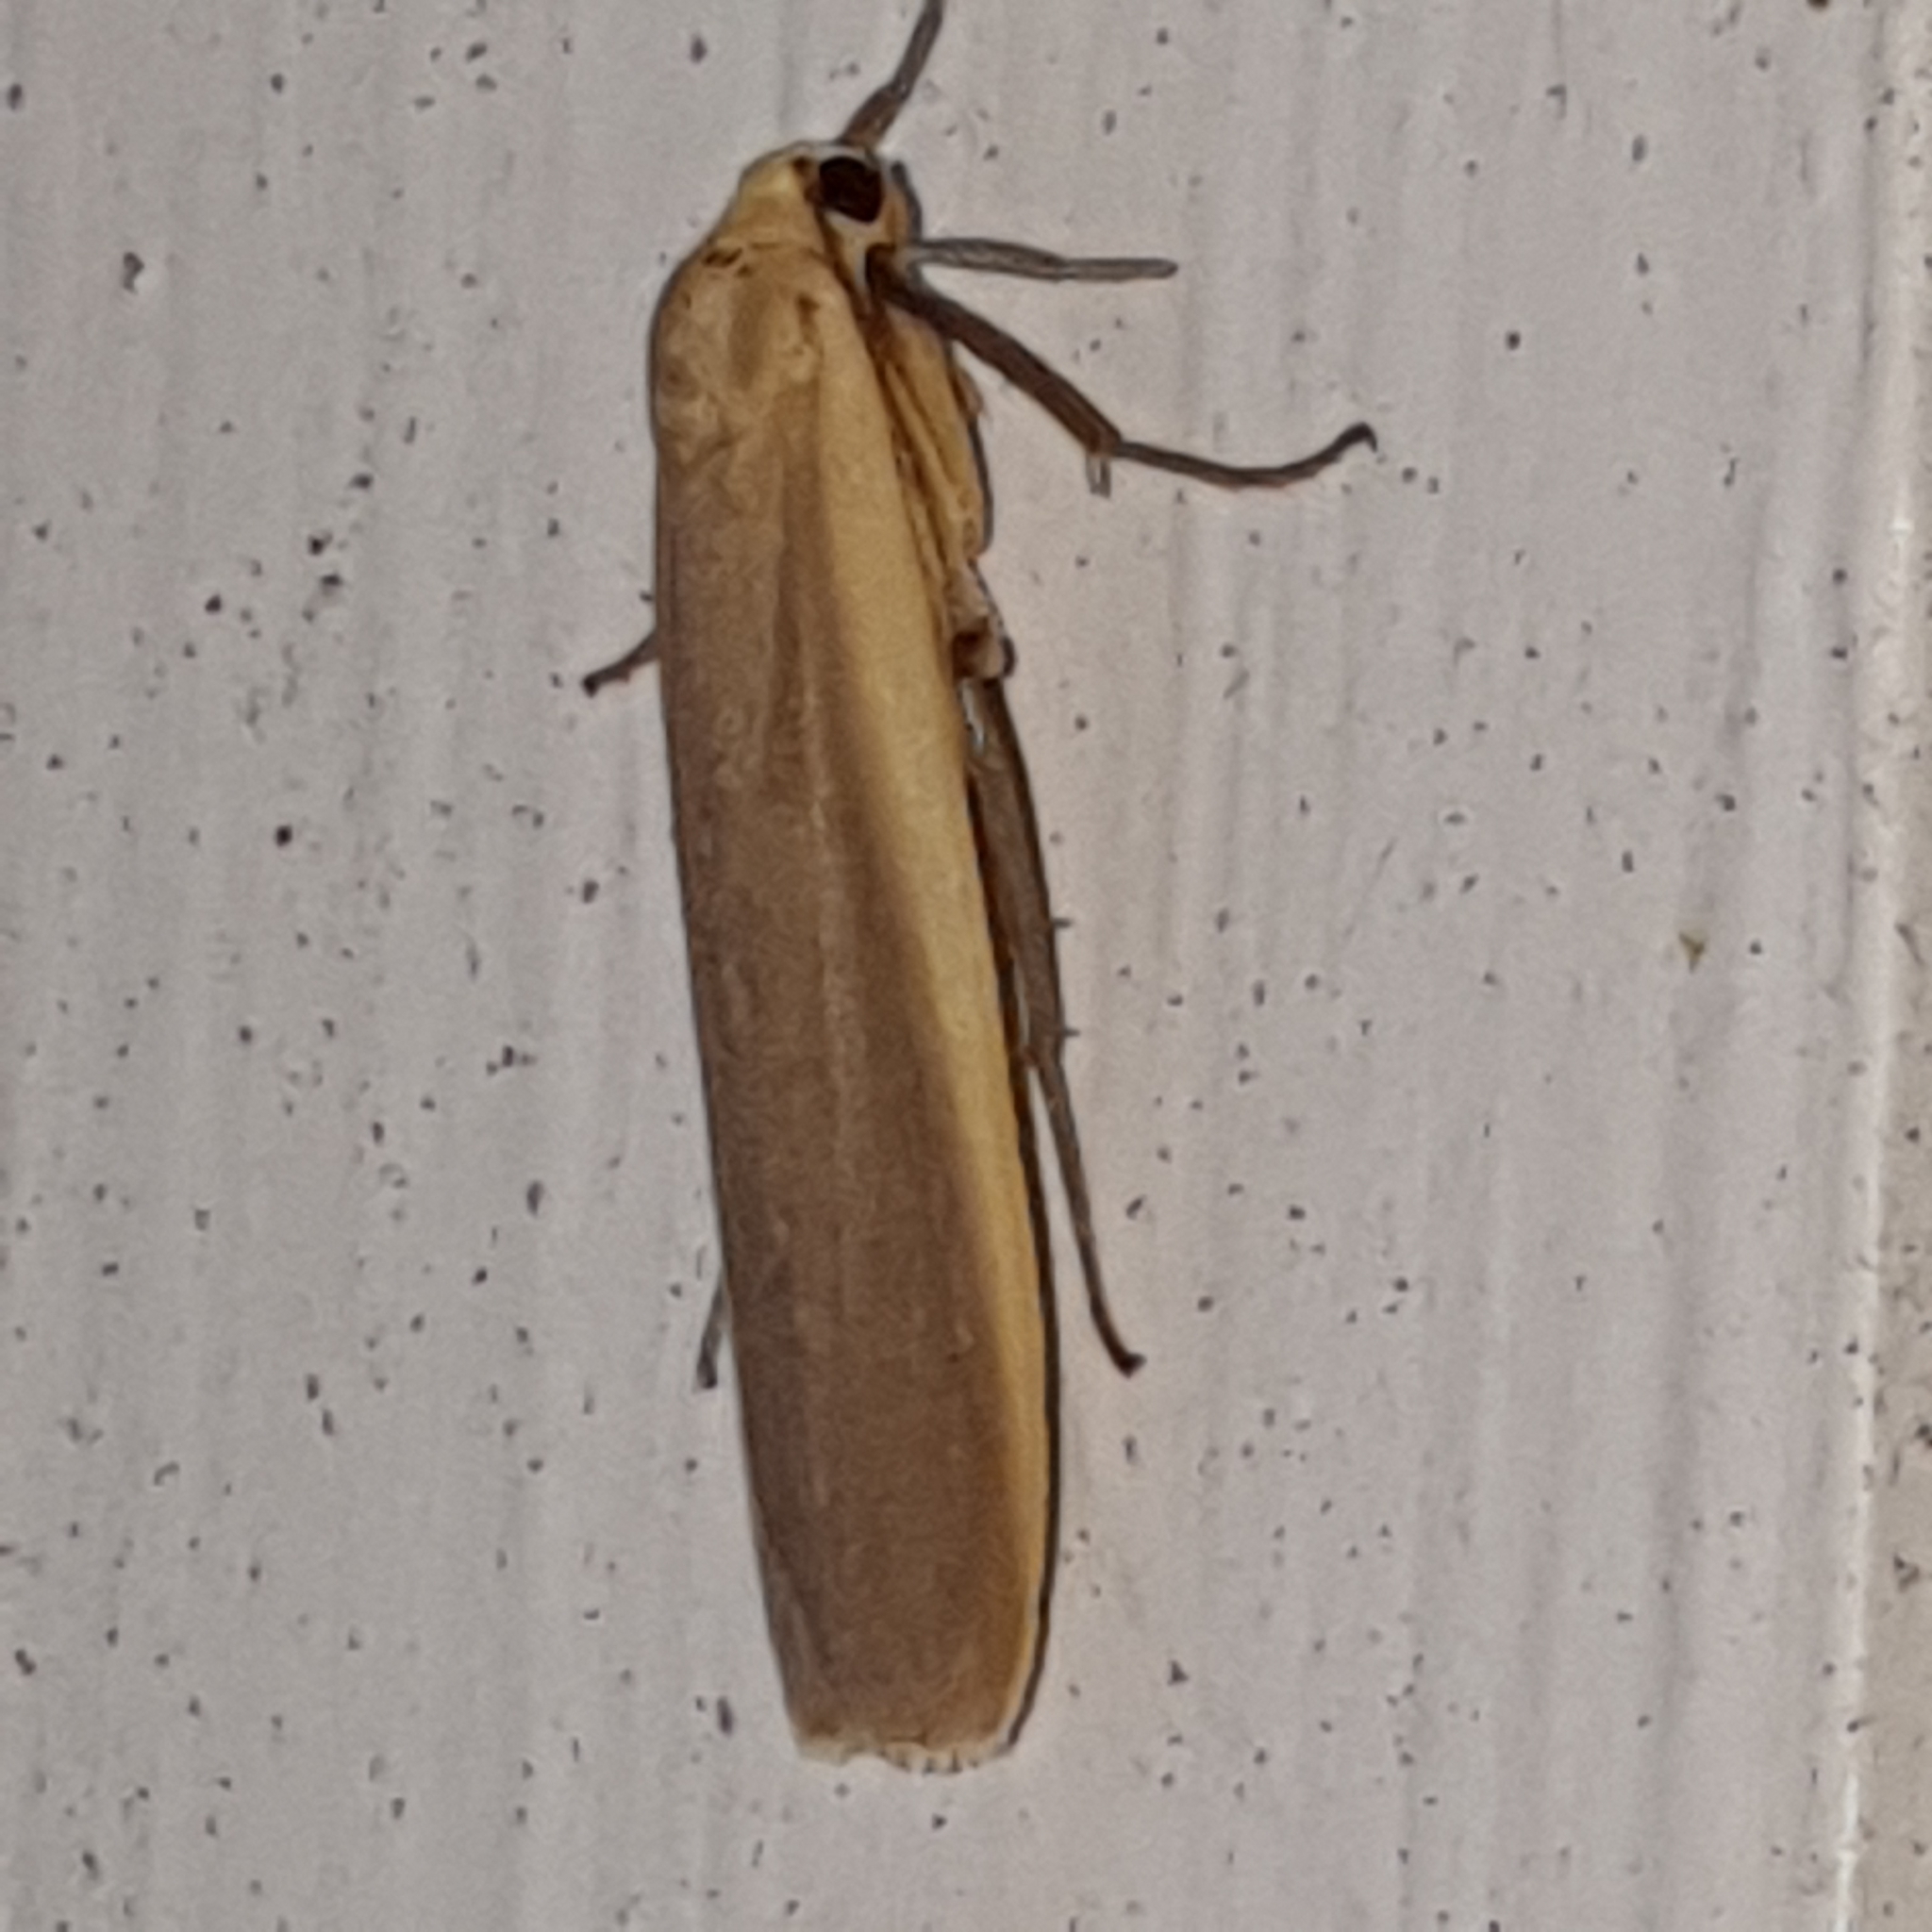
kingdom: Animalia
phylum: Arthropoda
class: Insecta
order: Lepidoptera
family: Erebidae
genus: Nyea
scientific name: Nyea lurideola
